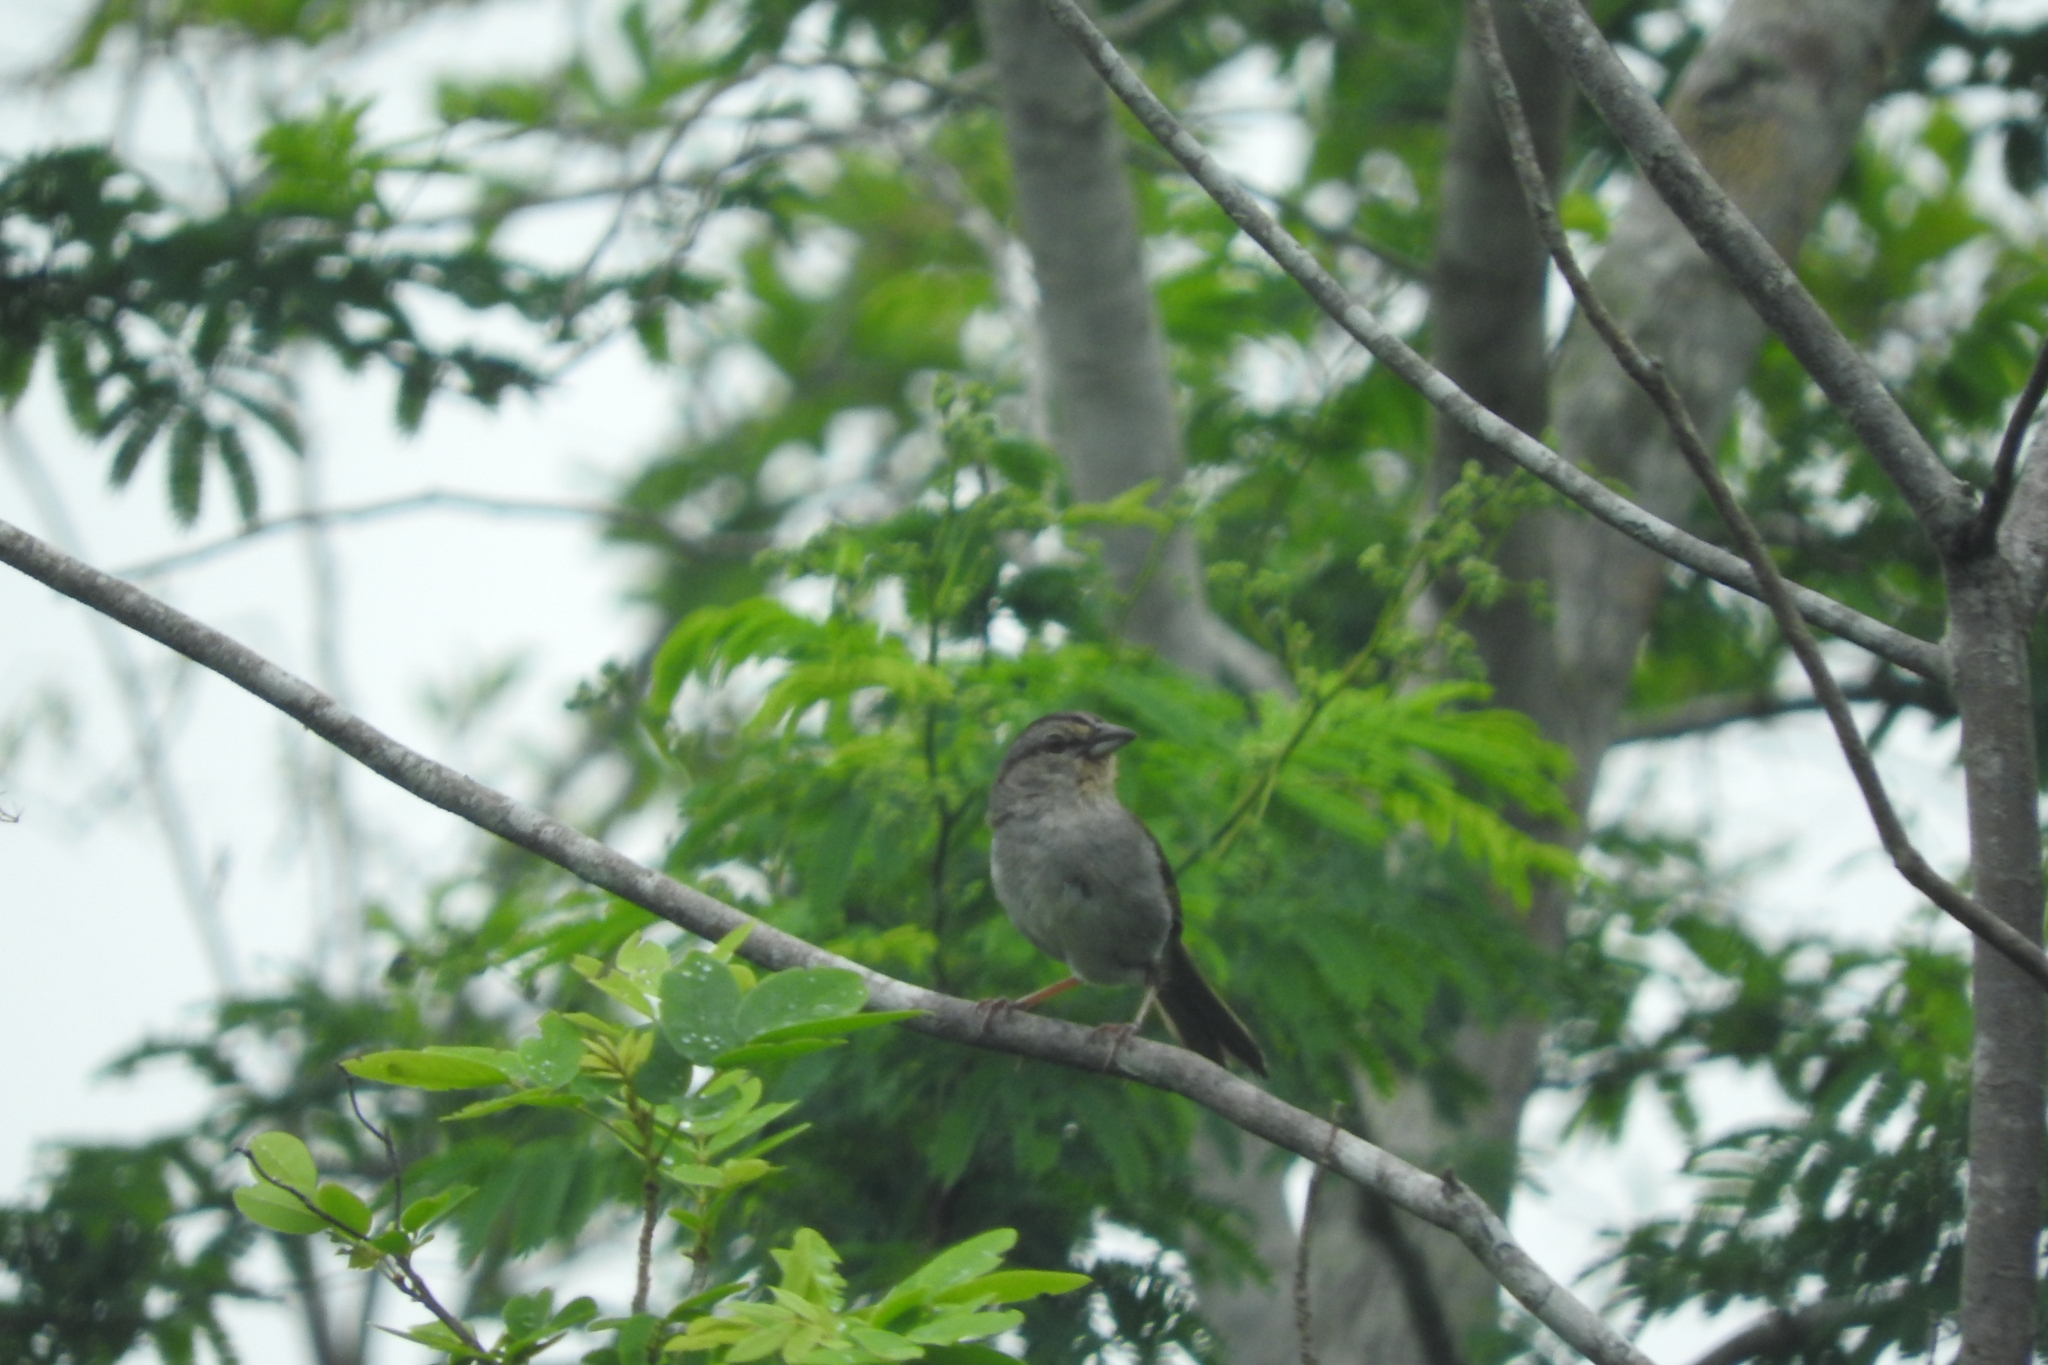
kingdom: Animalia
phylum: Chordata
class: Aves
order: Passeriformes
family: Passerellidae
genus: Arremonops
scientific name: Arremonops rufivirgatus
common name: Olive sparrow
